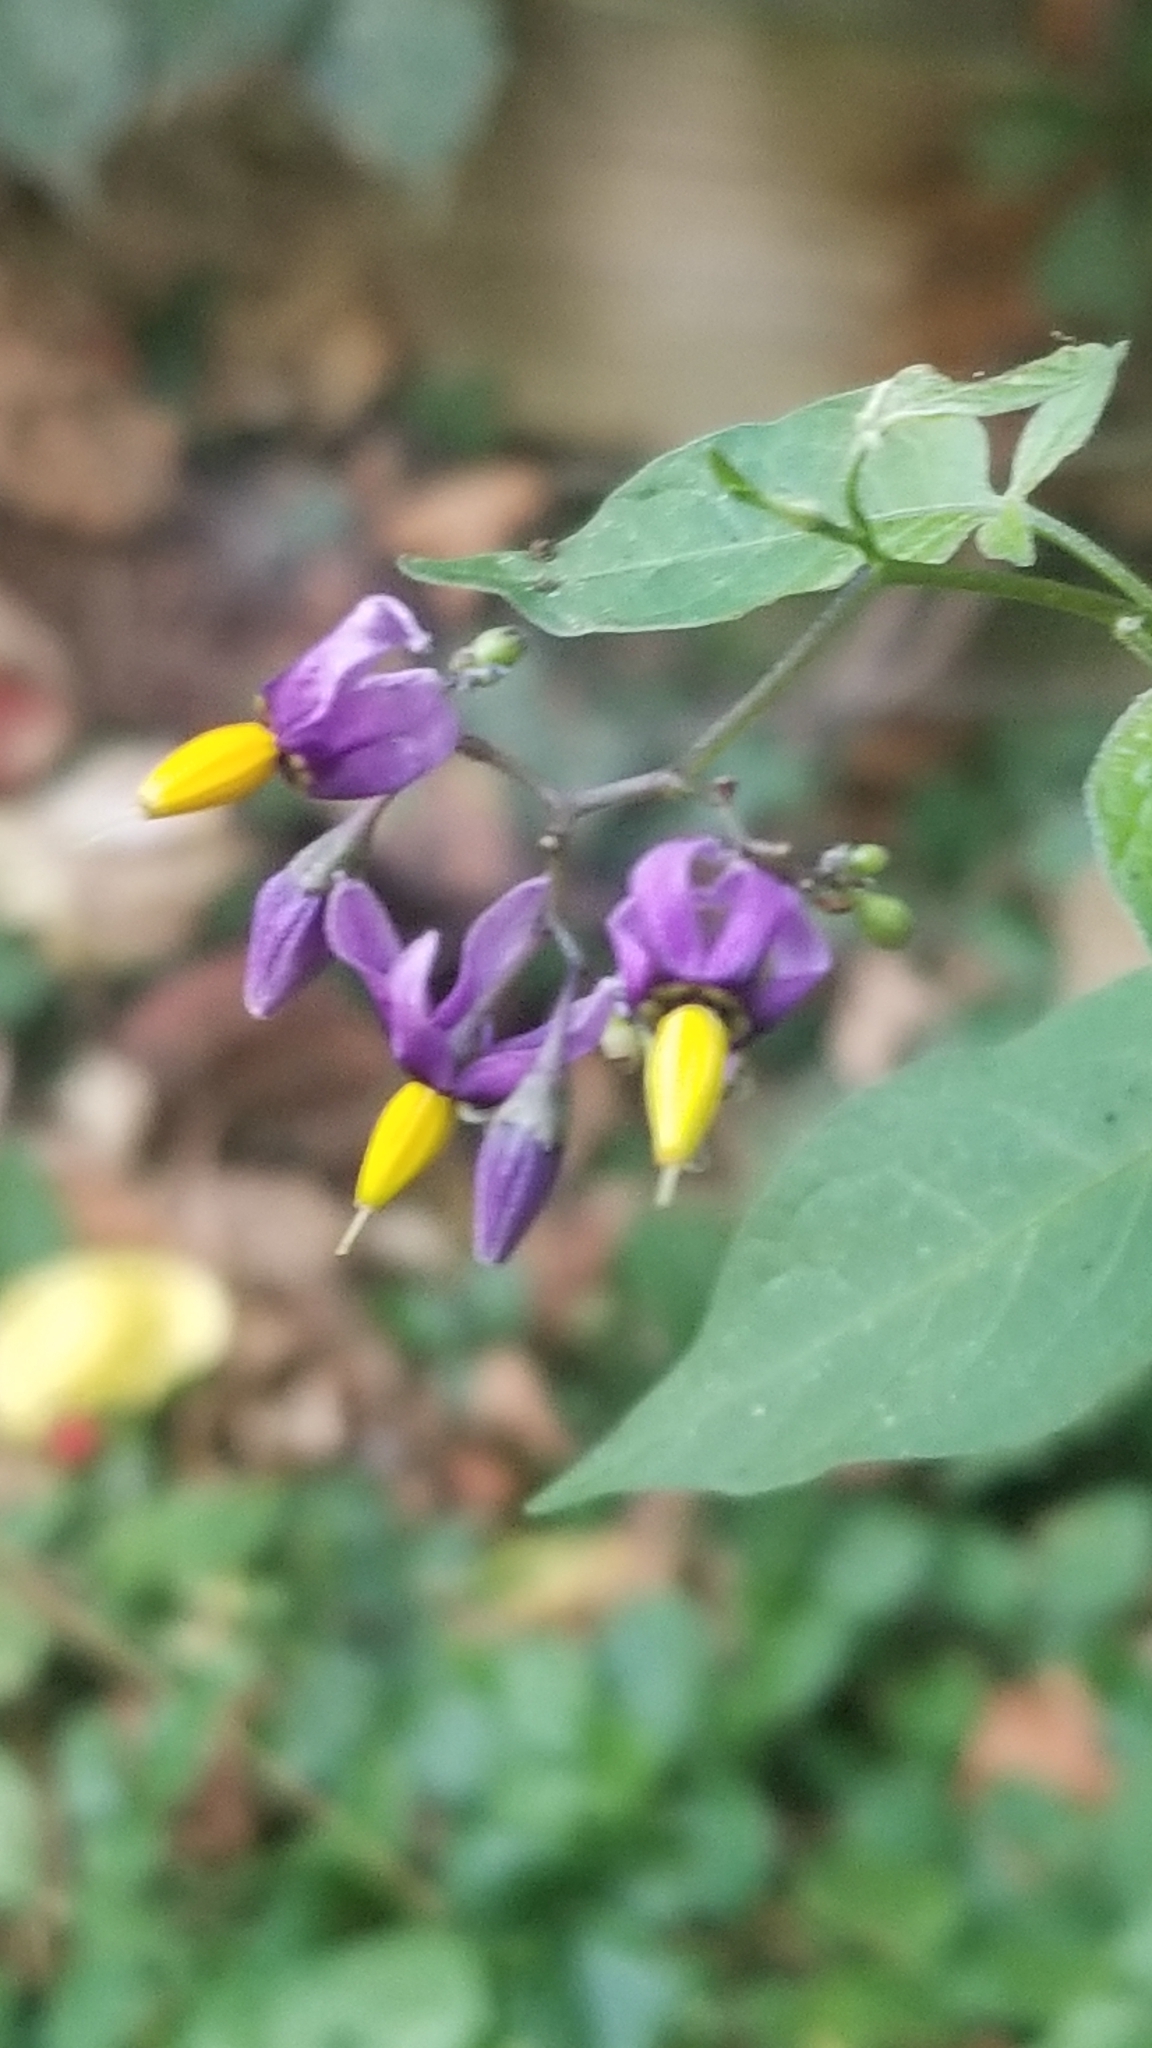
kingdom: Plantae
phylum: Tracheophyta
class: Magnoliopsida
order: Solanales
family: Solanaceae
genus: Solanum
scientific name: Solanum dulcamara
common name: Climbing nightshade
